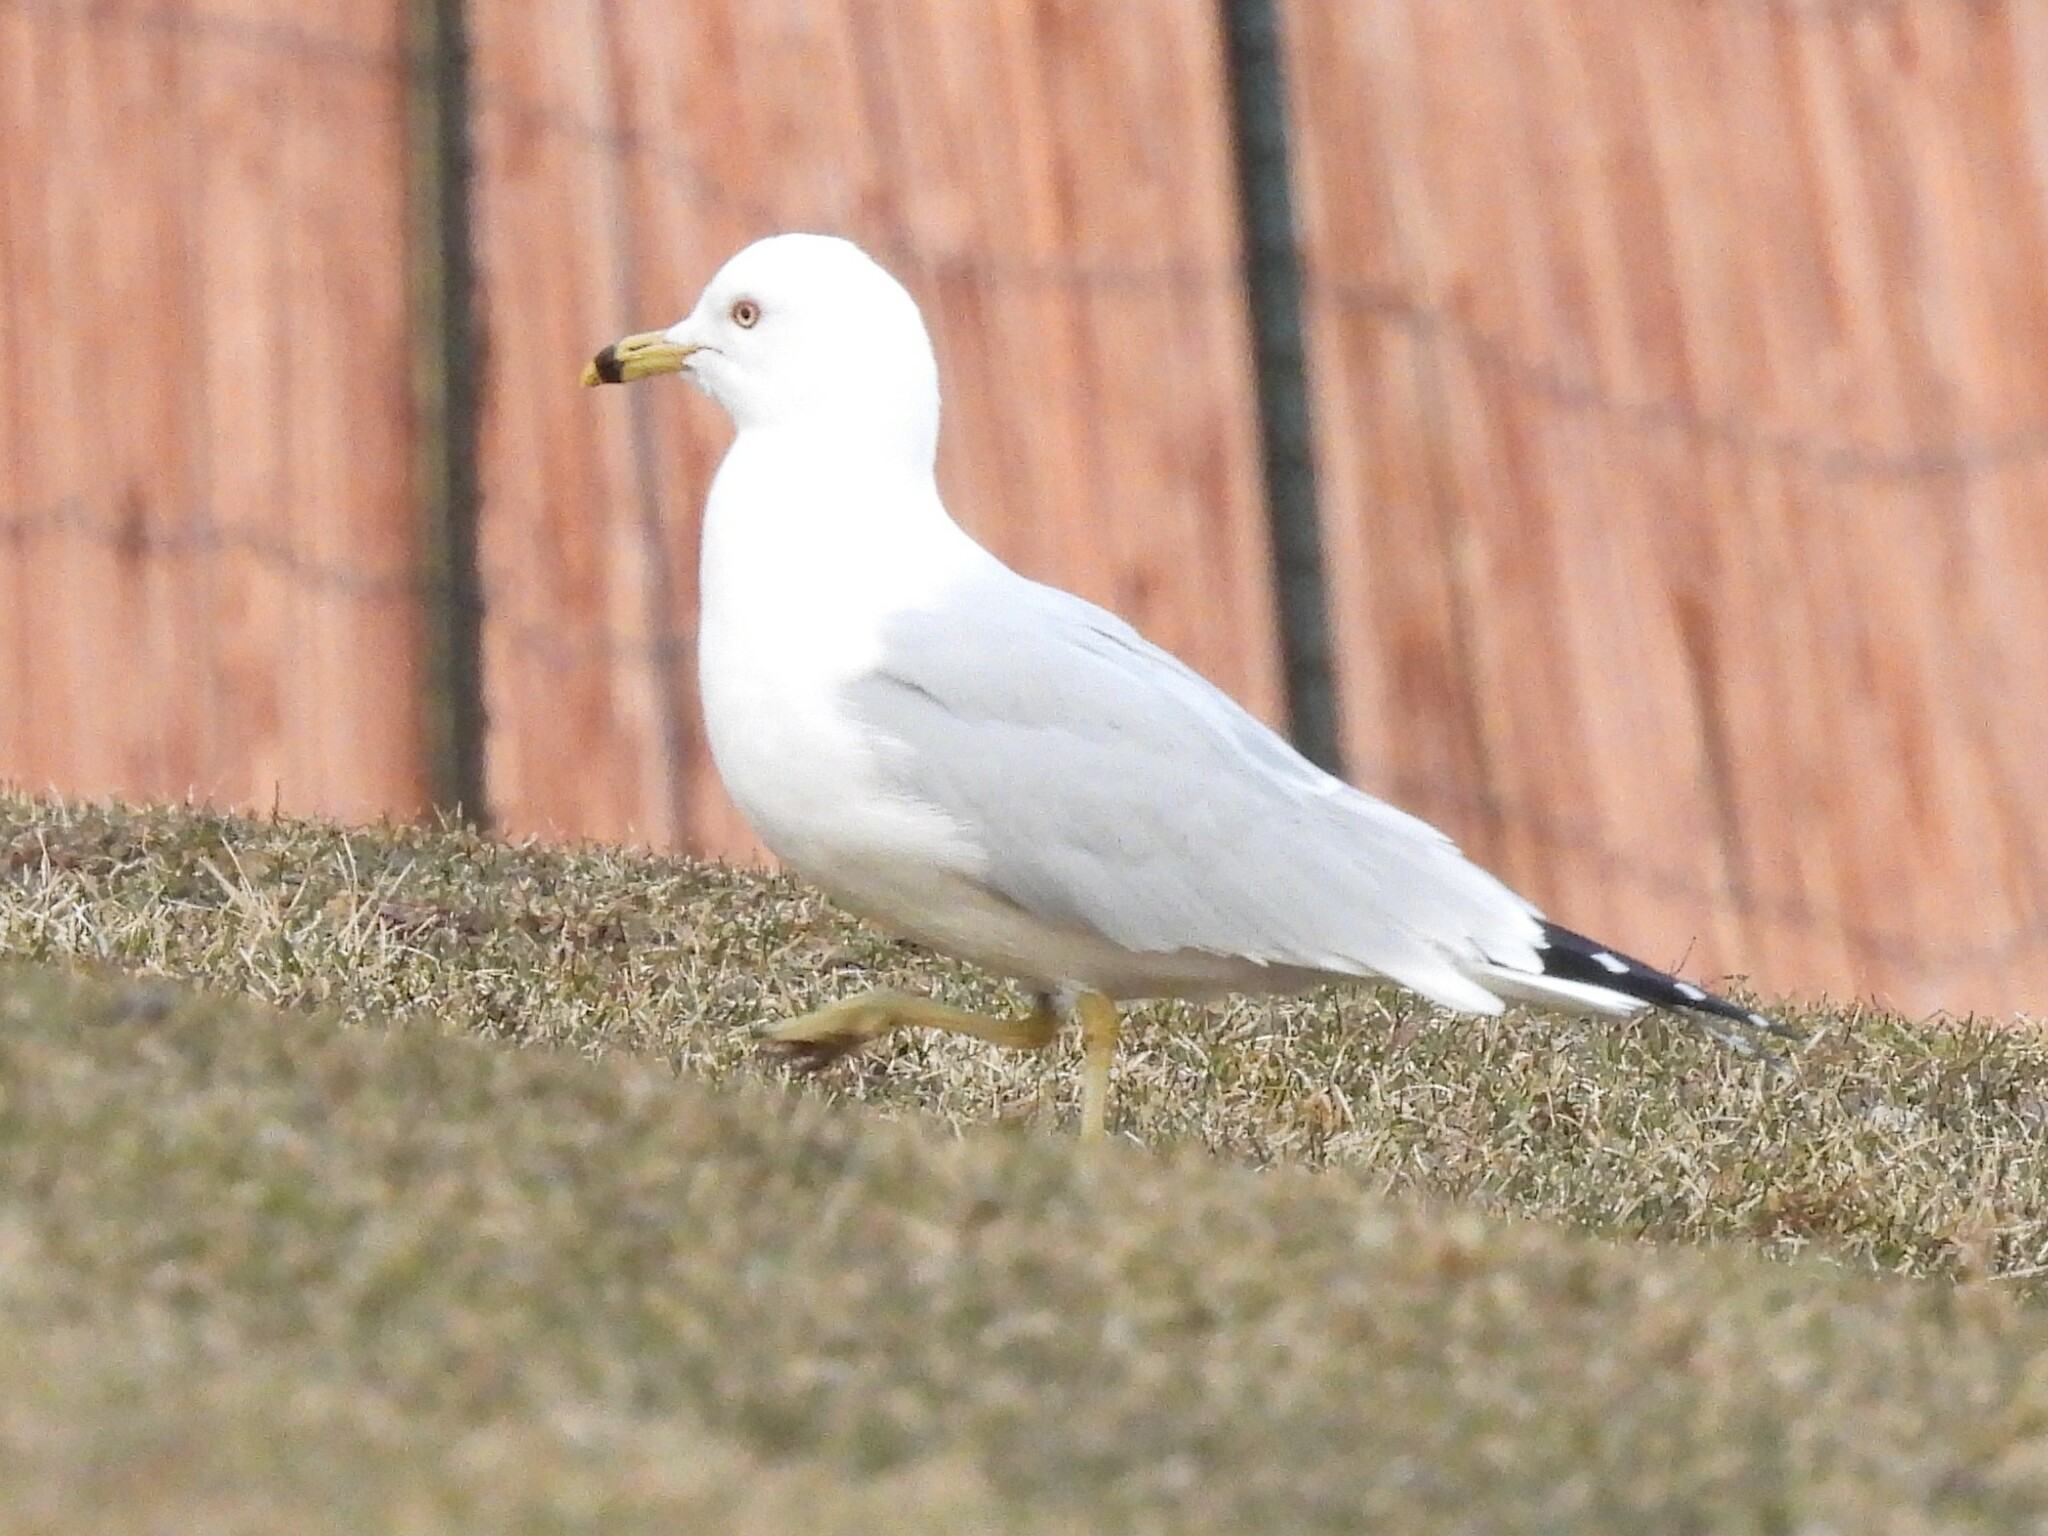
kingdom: Animalia
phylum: Chordata
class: Aves
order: Charadriiformes
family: Laridae
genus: Larus
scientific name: Larus delawarensis
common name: Ring-billed gull
